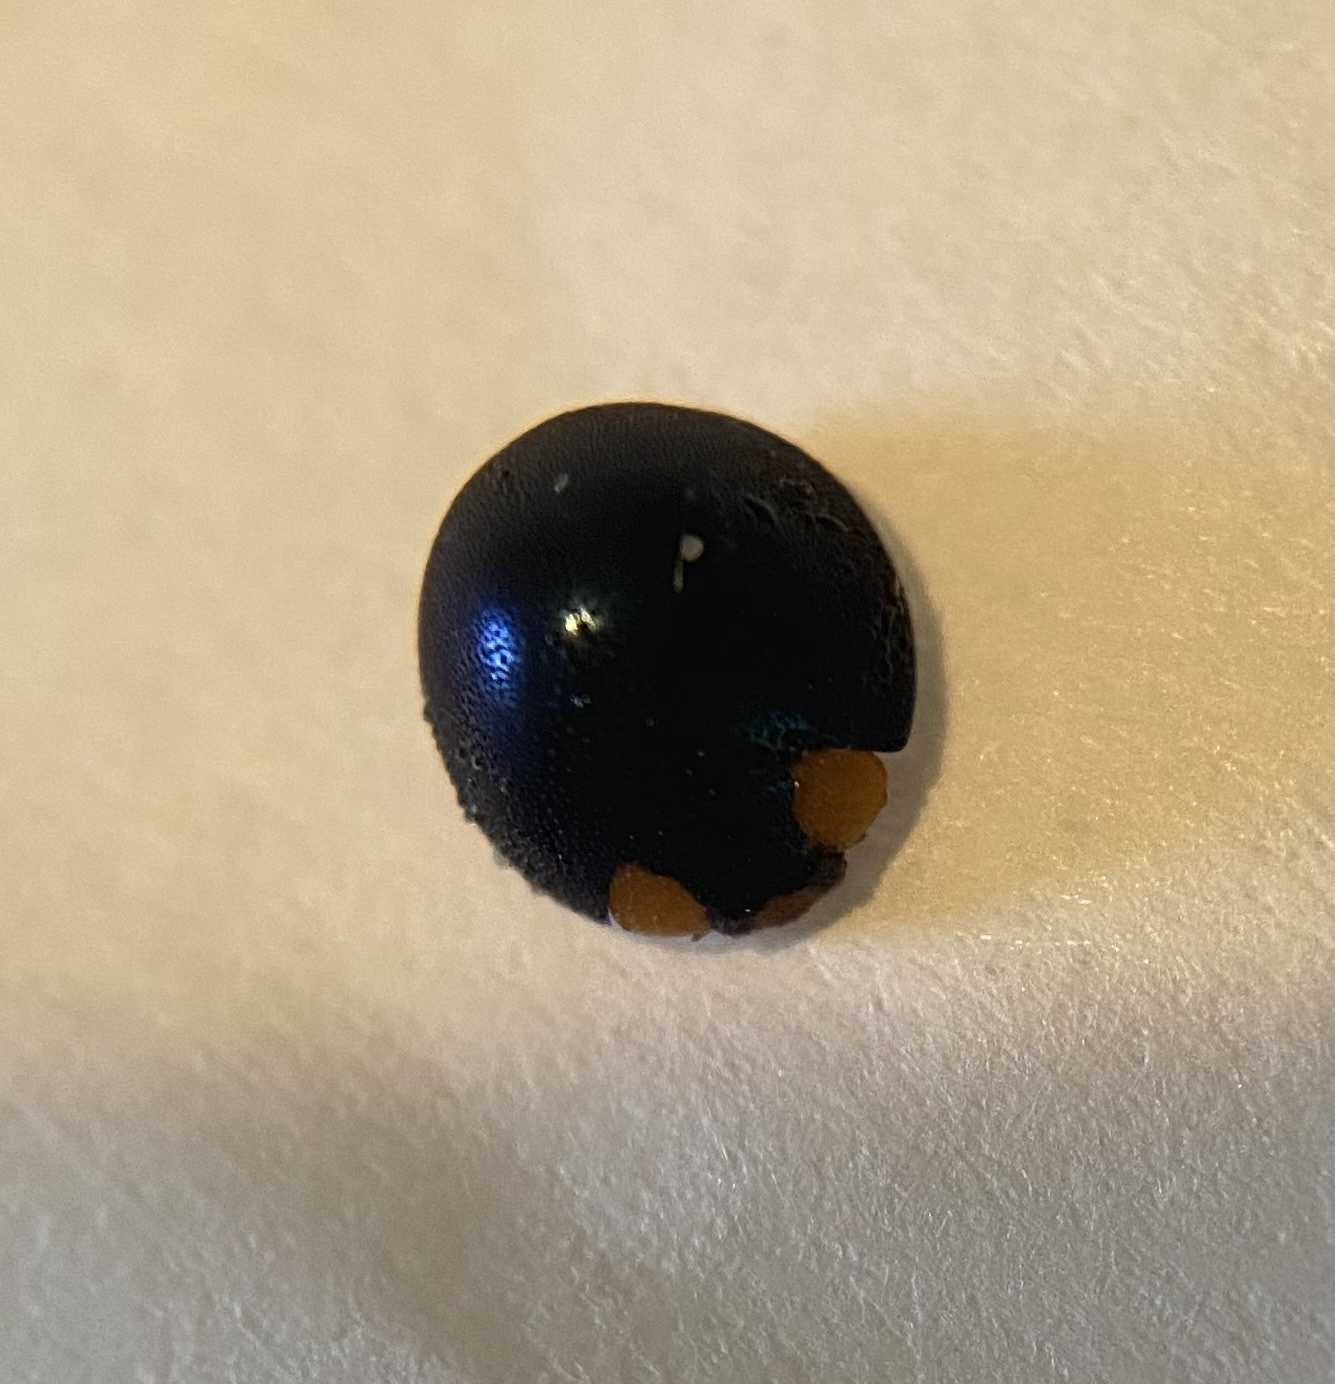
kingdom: Animalia
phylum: Arthropoda
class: Insecta
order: Coleoptera
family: Coccinellidae
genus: Curinus
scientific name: Curinus coeruleus
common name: Ladybird beetle
